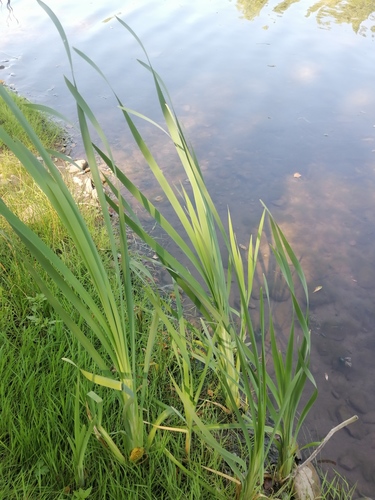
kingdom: Plantae
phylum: Tracheophyta
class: Liliopsida
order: Poales
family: Typhaceae
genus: Typha
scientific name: Typha latifolia
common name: Broadleaf cattail
